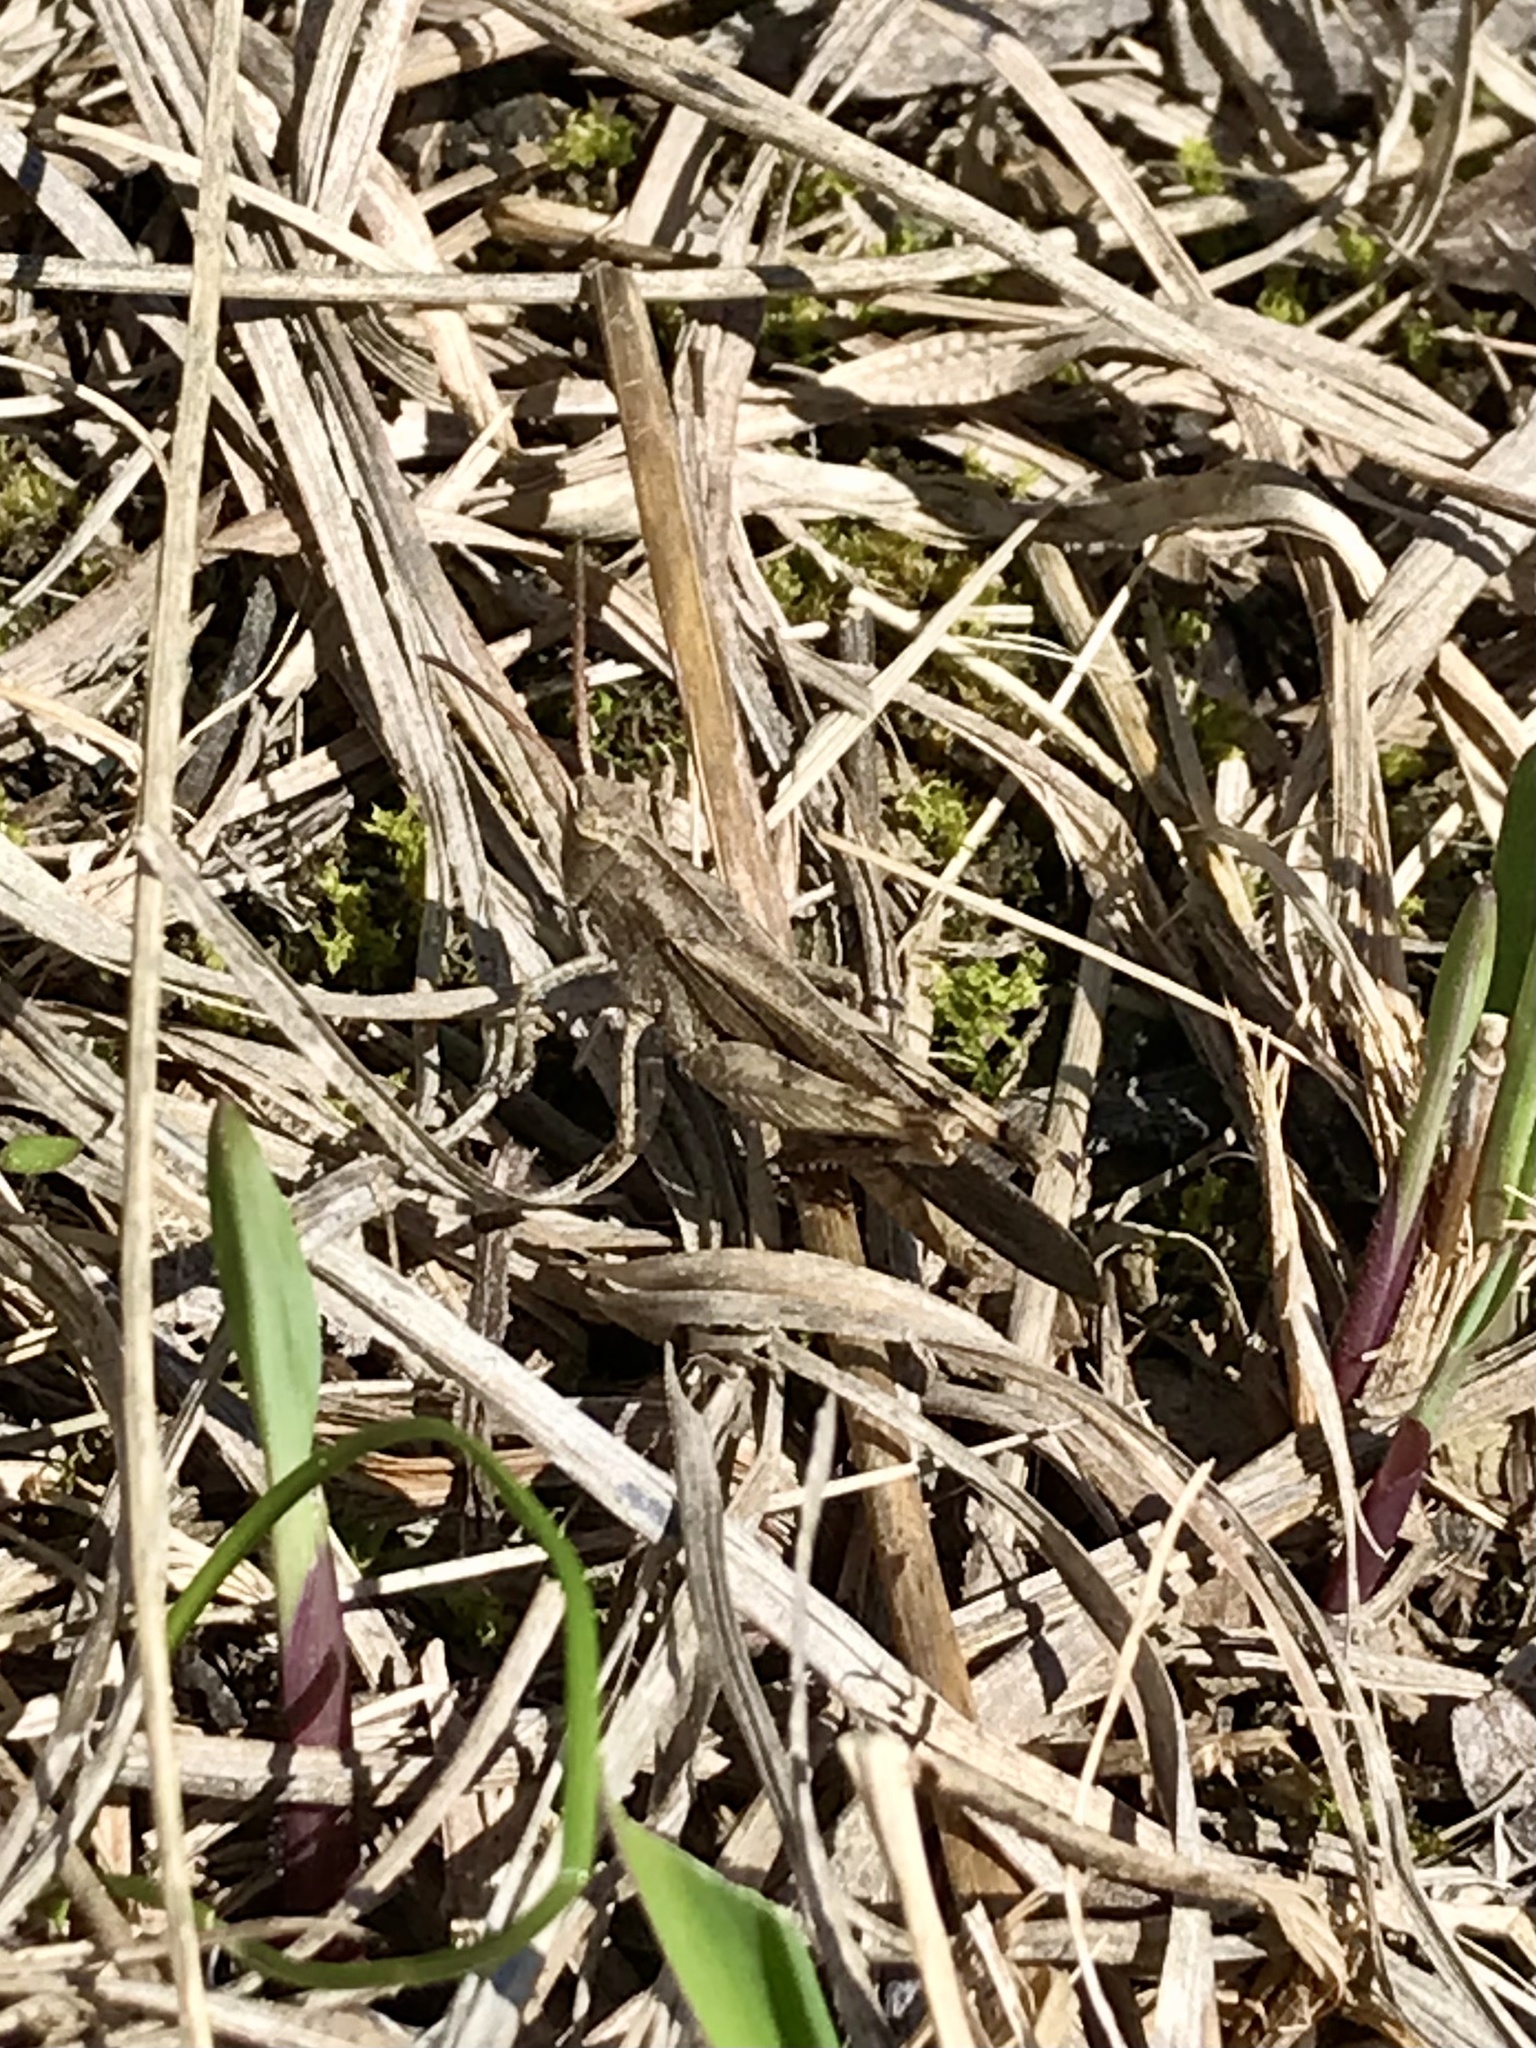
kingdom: Animalia
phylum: Arthropoda
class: Insecta
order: Orthoptera
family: Acrididae
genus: Chortophaga
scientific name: Chortophaga viridifasciata
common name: Green-striped grasshopper
